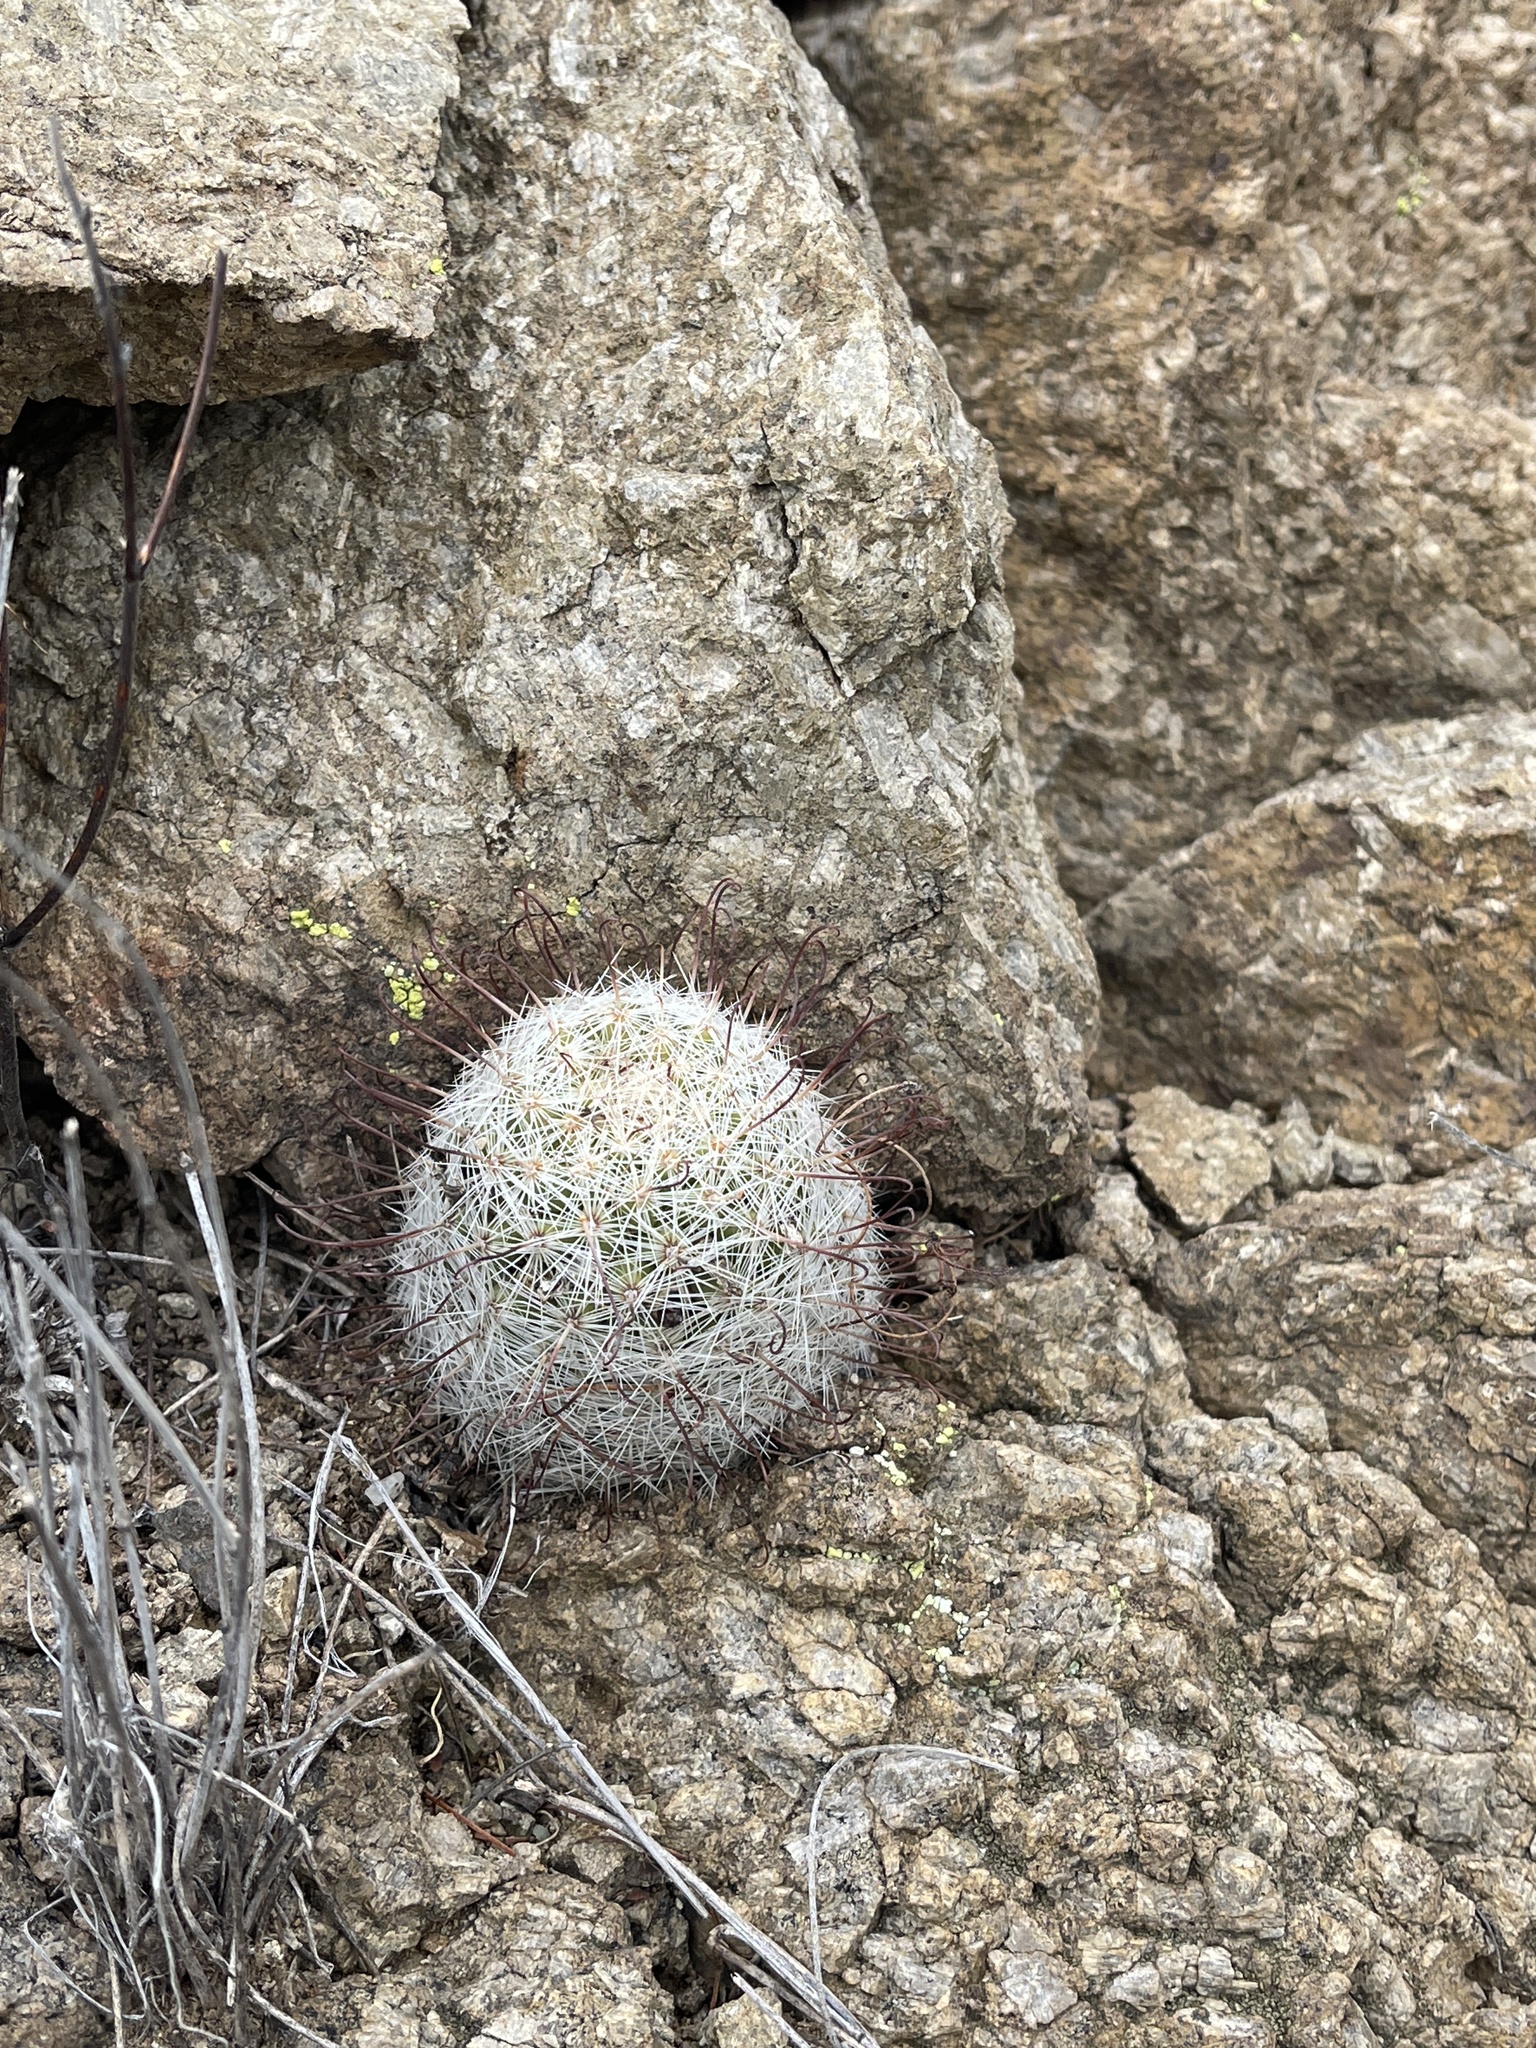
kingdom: Plantae
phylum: Tracheophyta
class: Magnoliopsida
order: Caryophyllales
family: Cactaceae
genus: Cochemiea
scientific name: Cochemiea grahamii
